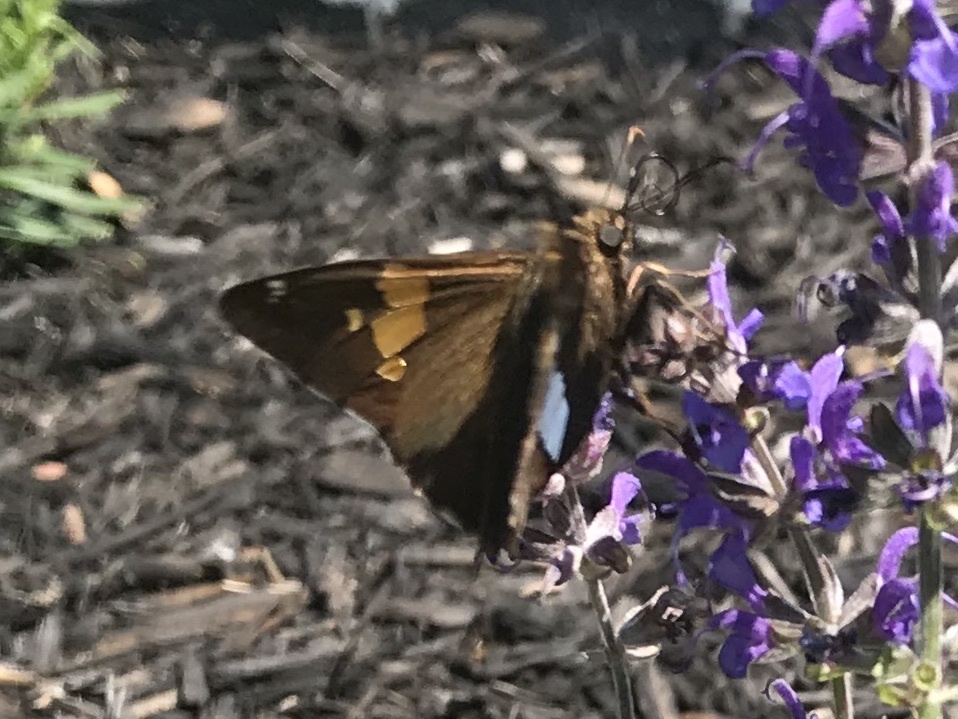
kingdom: Animalia
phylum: Arthropoda
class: Insecta
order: Lepidoptera
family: Hesperiidae
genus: Epargyreus
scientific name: Epargyreus clarus
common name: Silver-spotted skipper
